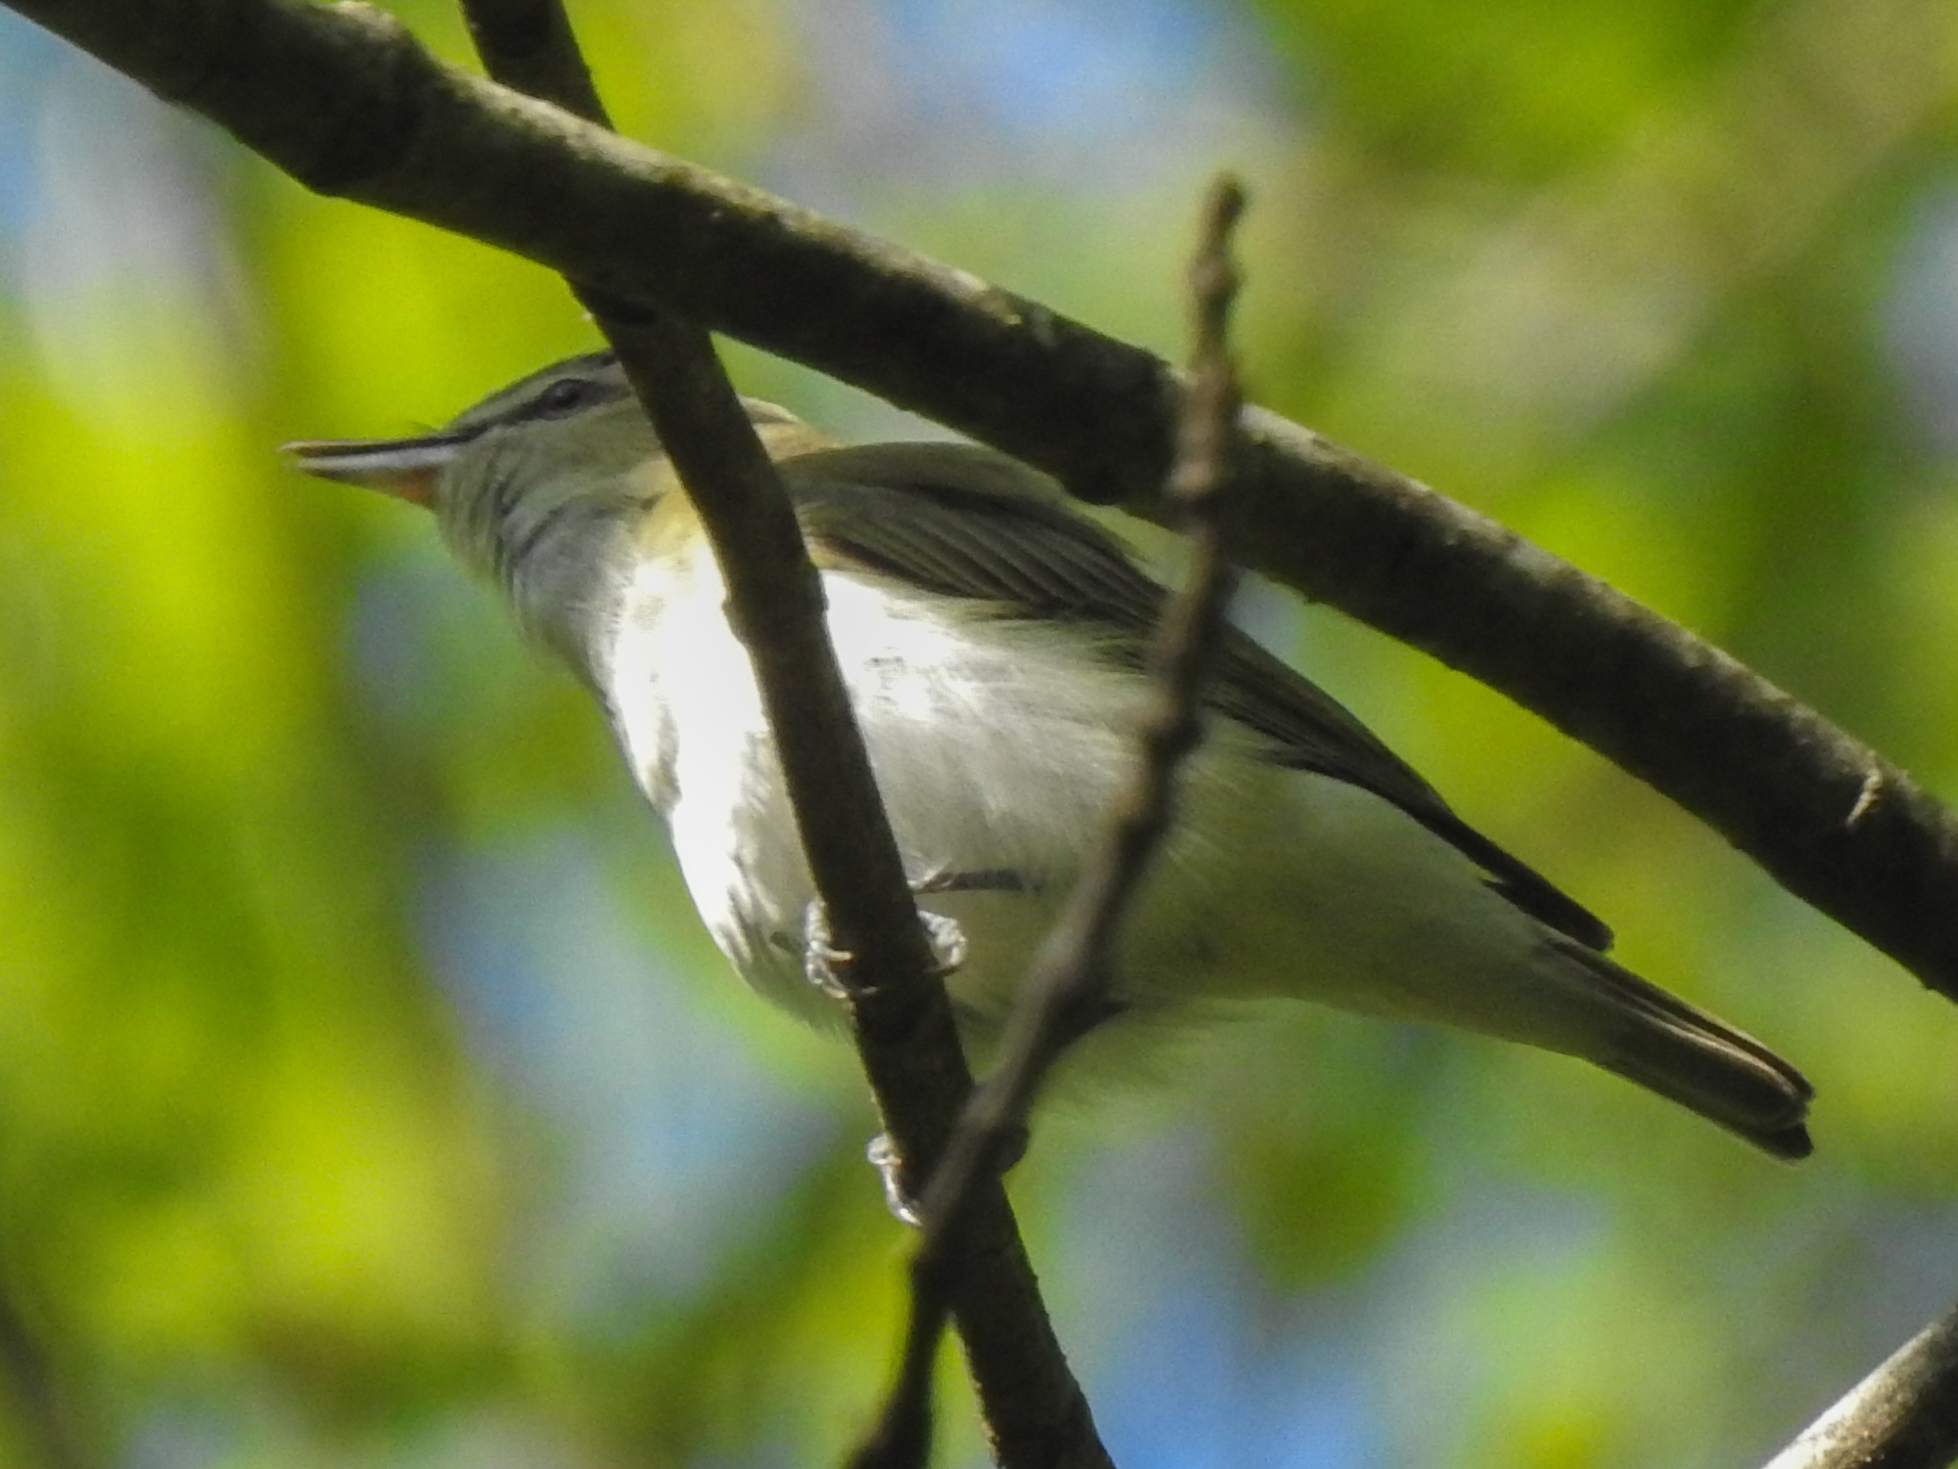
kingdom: Animalia
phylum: Chordata
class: Aves
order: Passeriformes
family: Vireonidae
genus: Vireo
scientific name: Vireo olivaceus
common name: Red-eyed vireo
